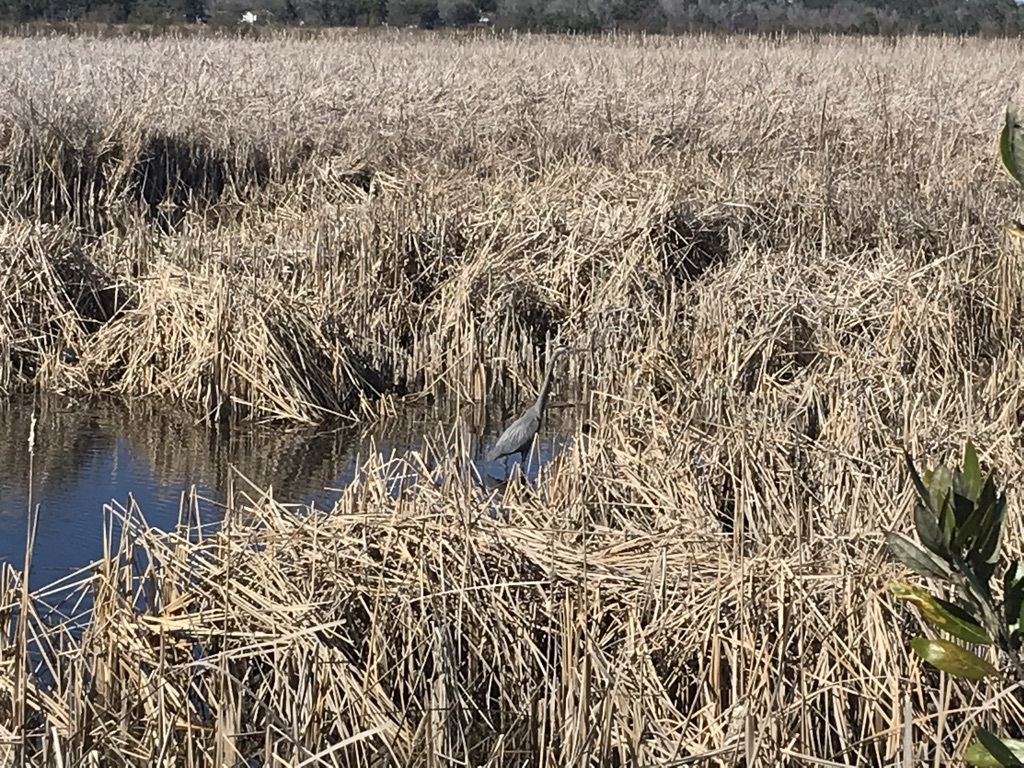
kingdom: Animalia
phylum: Chordata
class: Aves
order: Pelecaniformes
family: Ardeidae
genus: Ardea
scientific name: Ardea herodias
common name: Great blue heron
